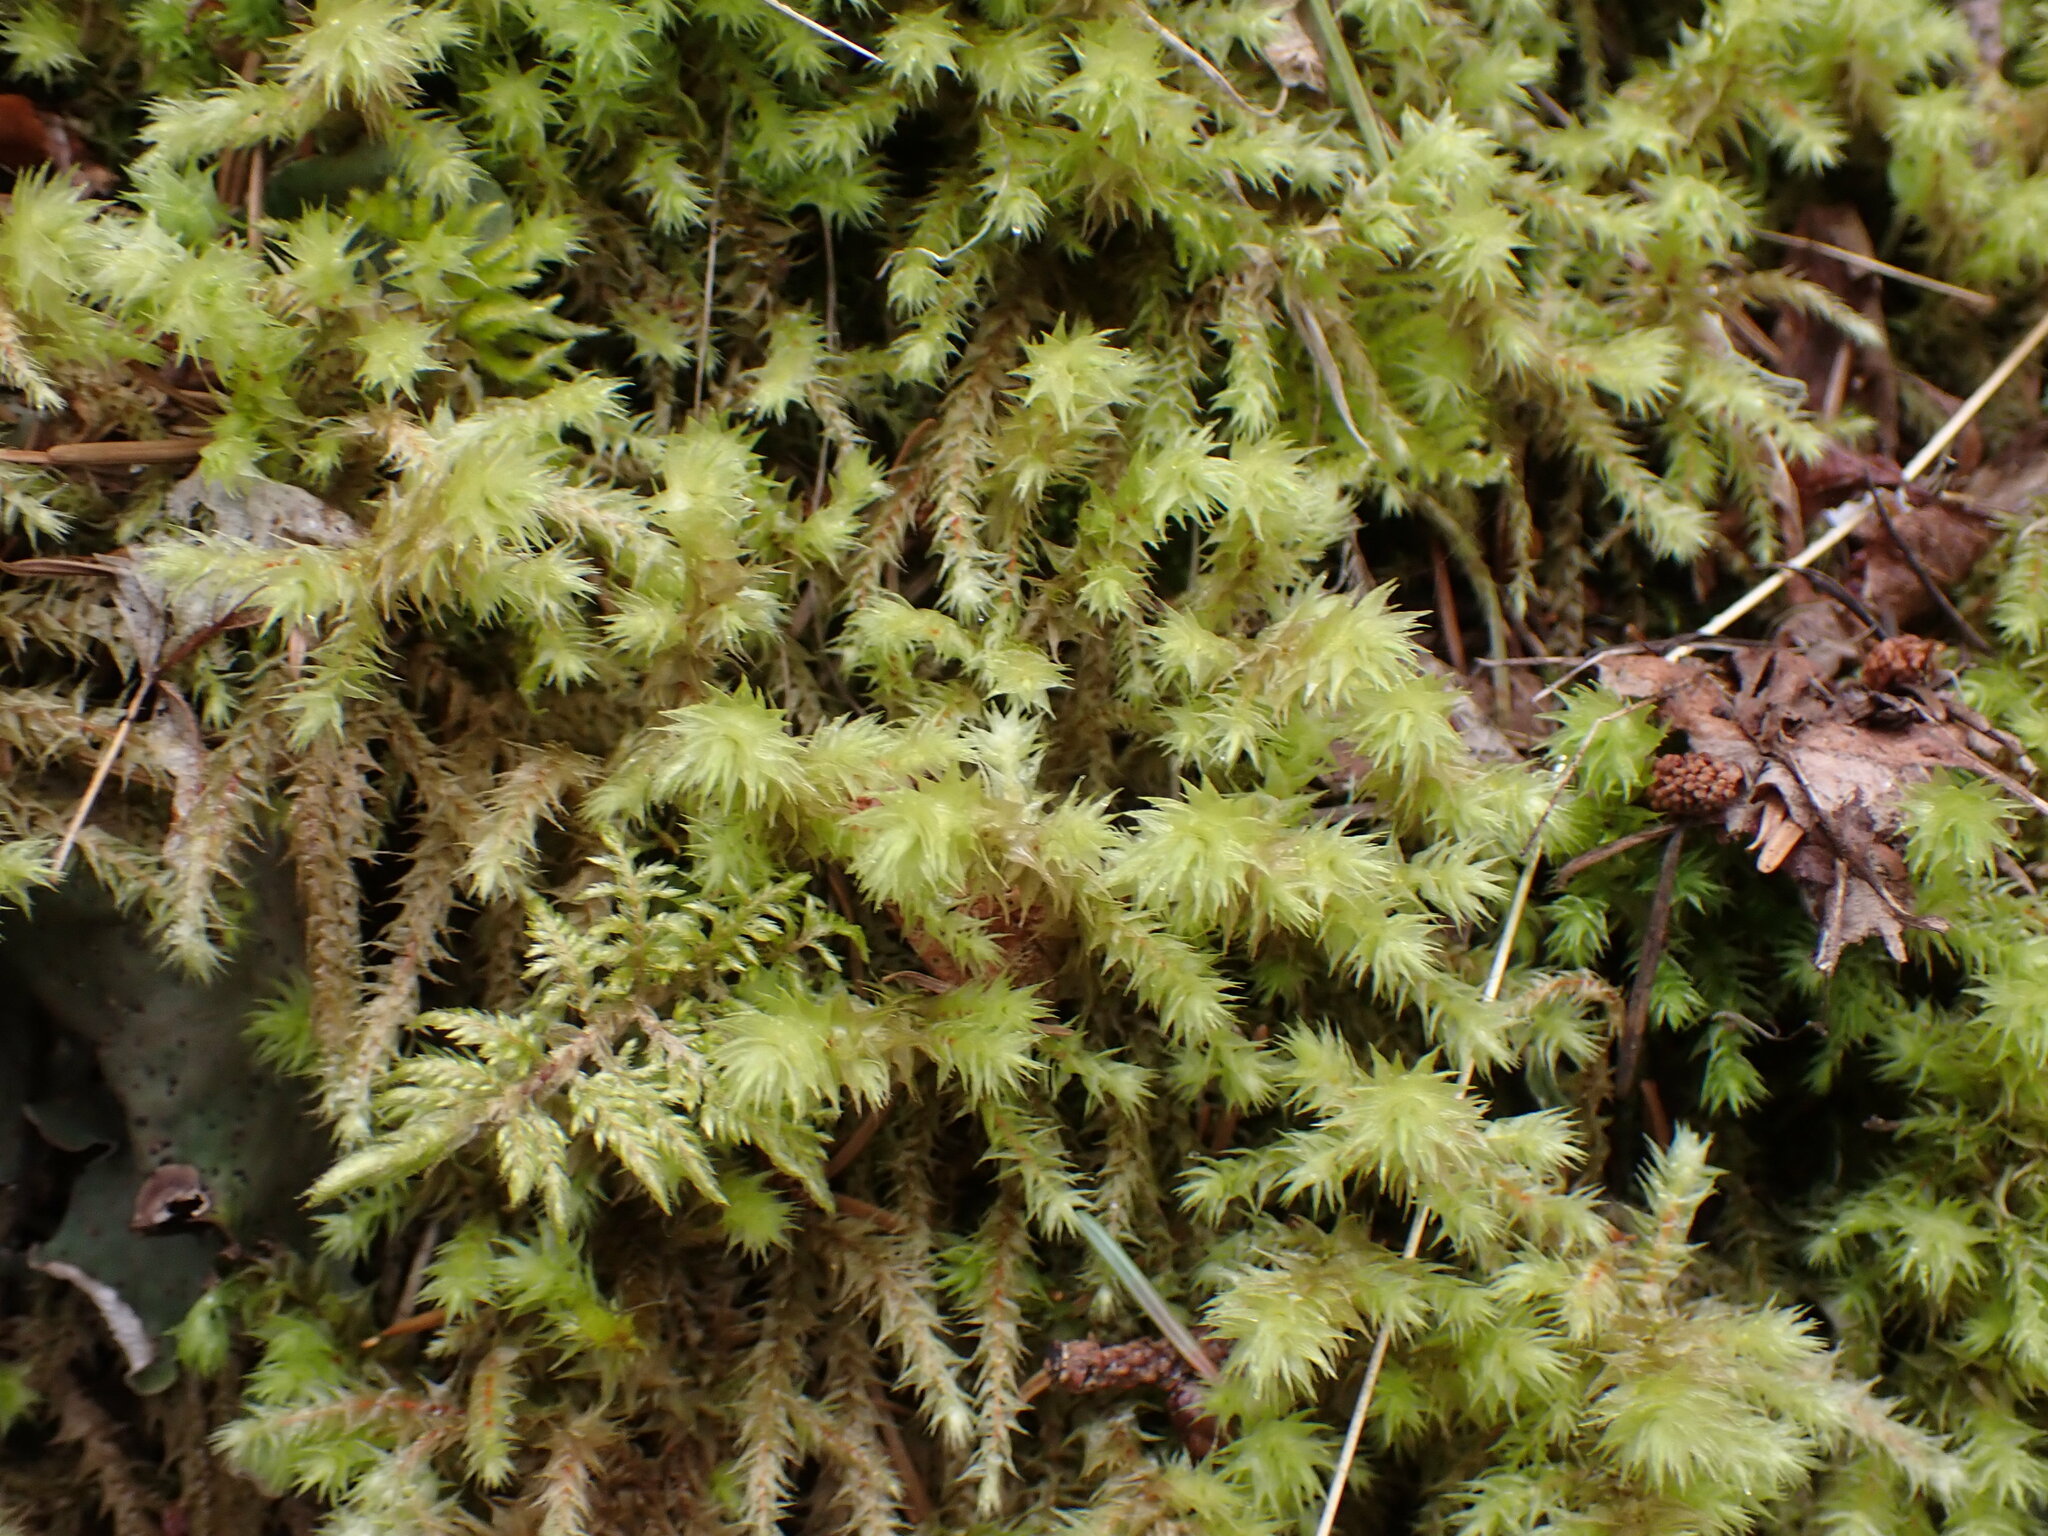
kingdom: Plantae
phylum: Bryophyta
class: Bryopsida
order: Hypnales
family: Hylocomiaceae
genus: Hylocomiadelphus
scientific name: Hylocomiadelphus triquetrus
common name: Rough goose neck moss
